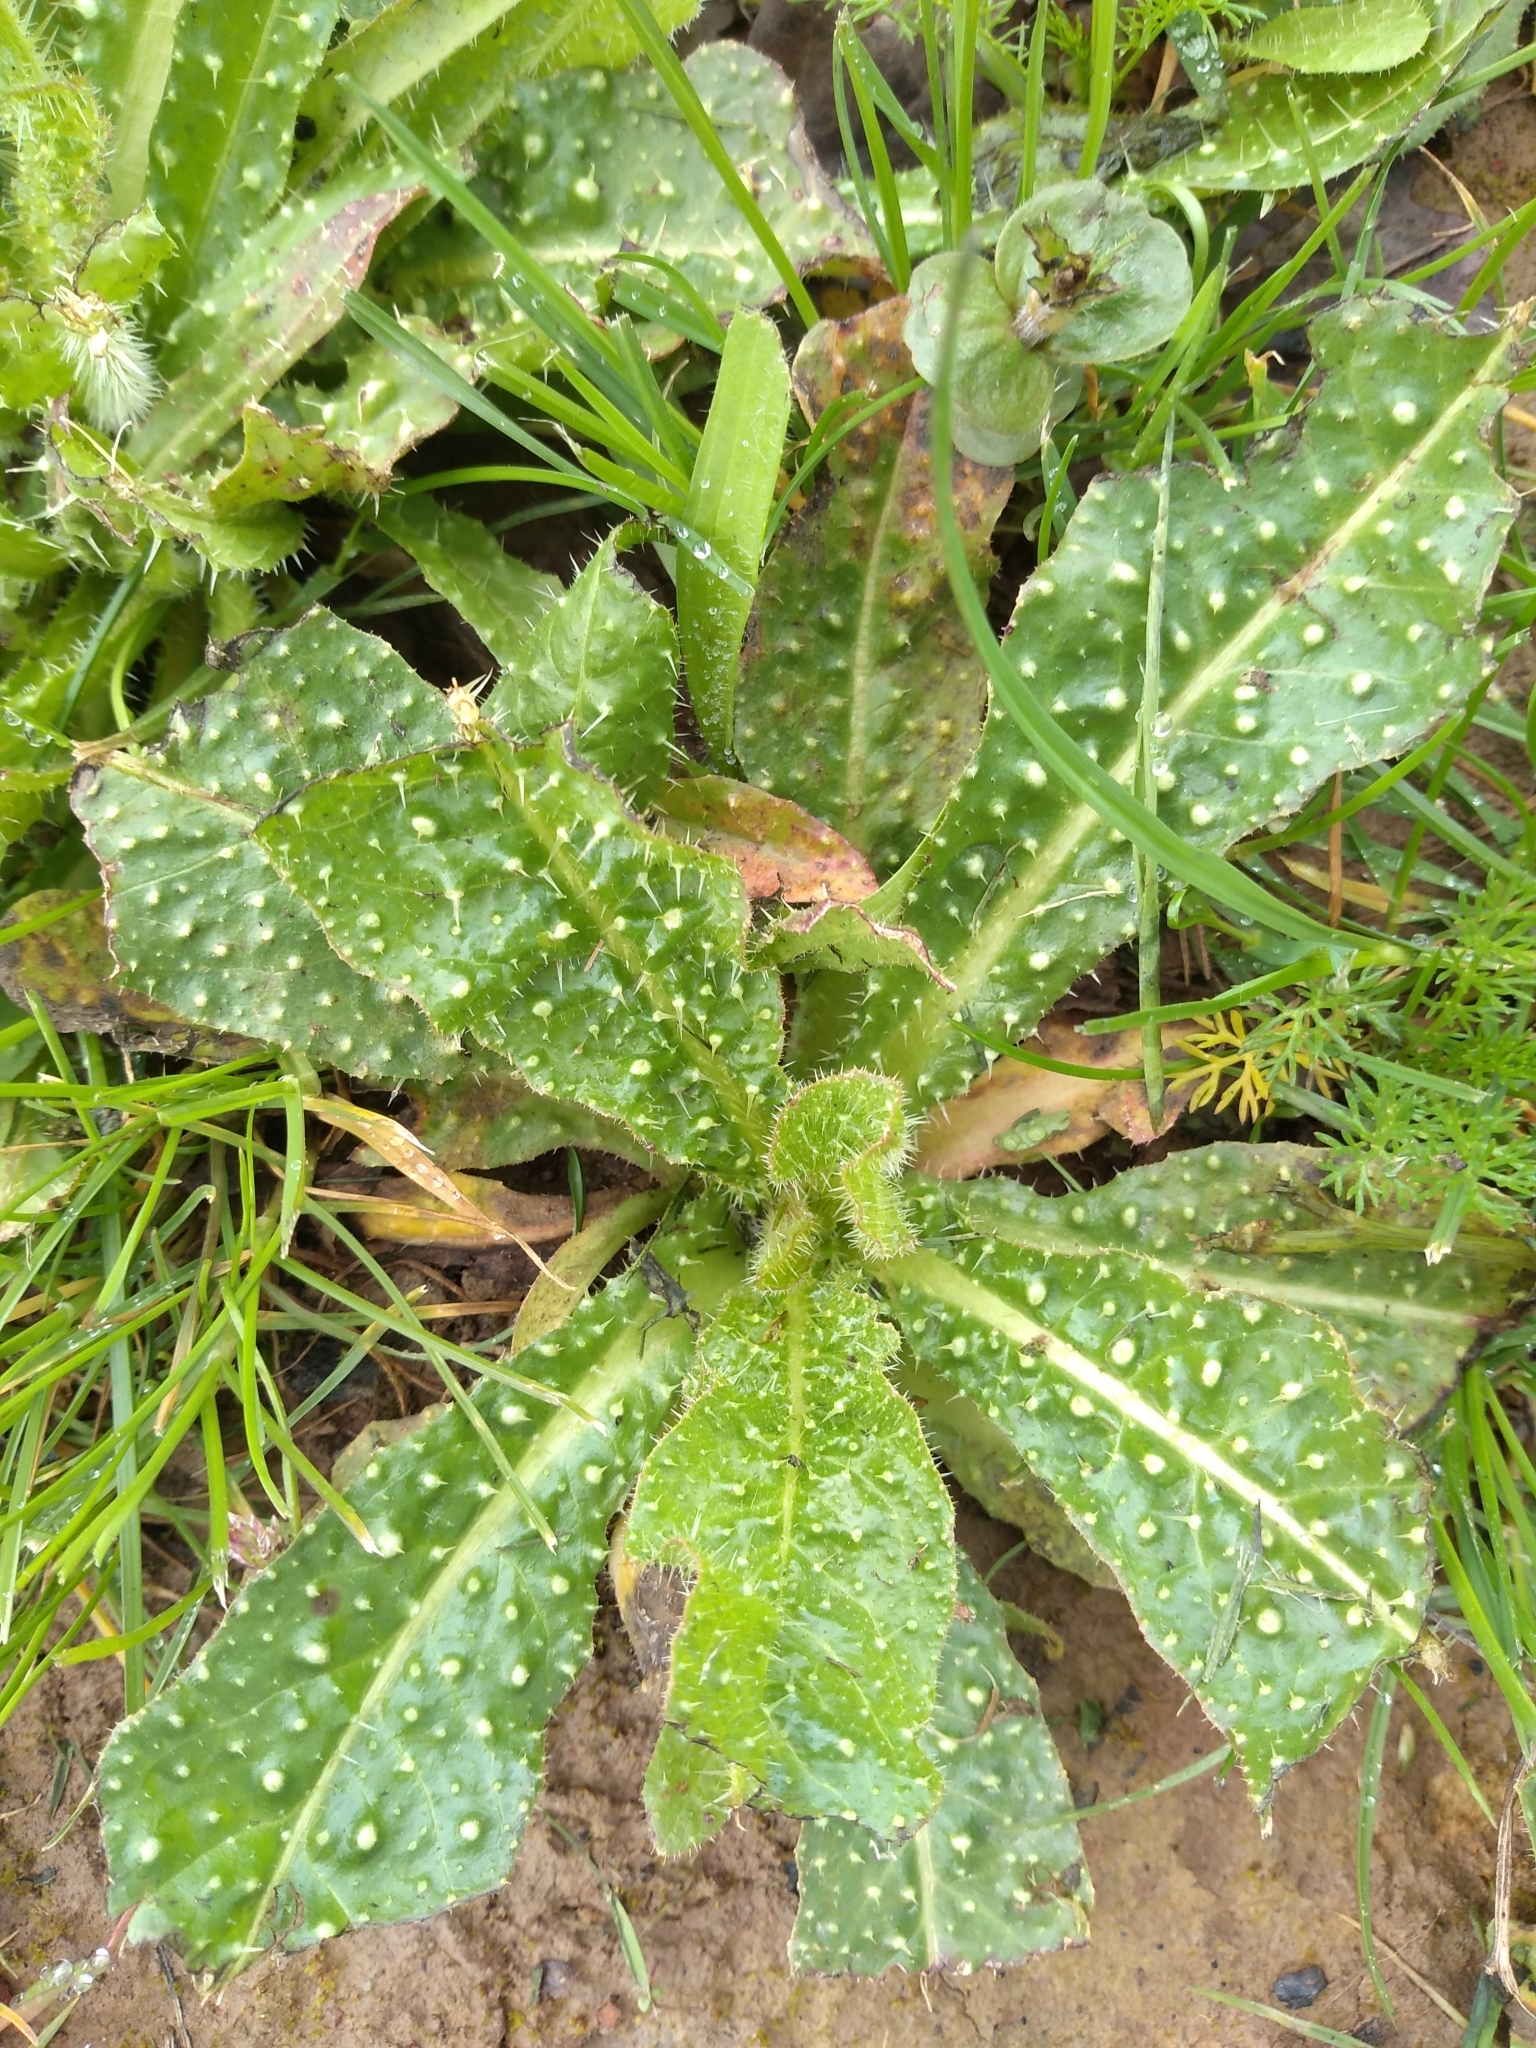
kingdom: Plantae
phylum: Tracheophyta
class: Magnoliopsida
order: Asterales
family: Asteraceae
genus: Helminthotheca
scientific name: Helminthotheca echioides
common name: Ox-tongue
